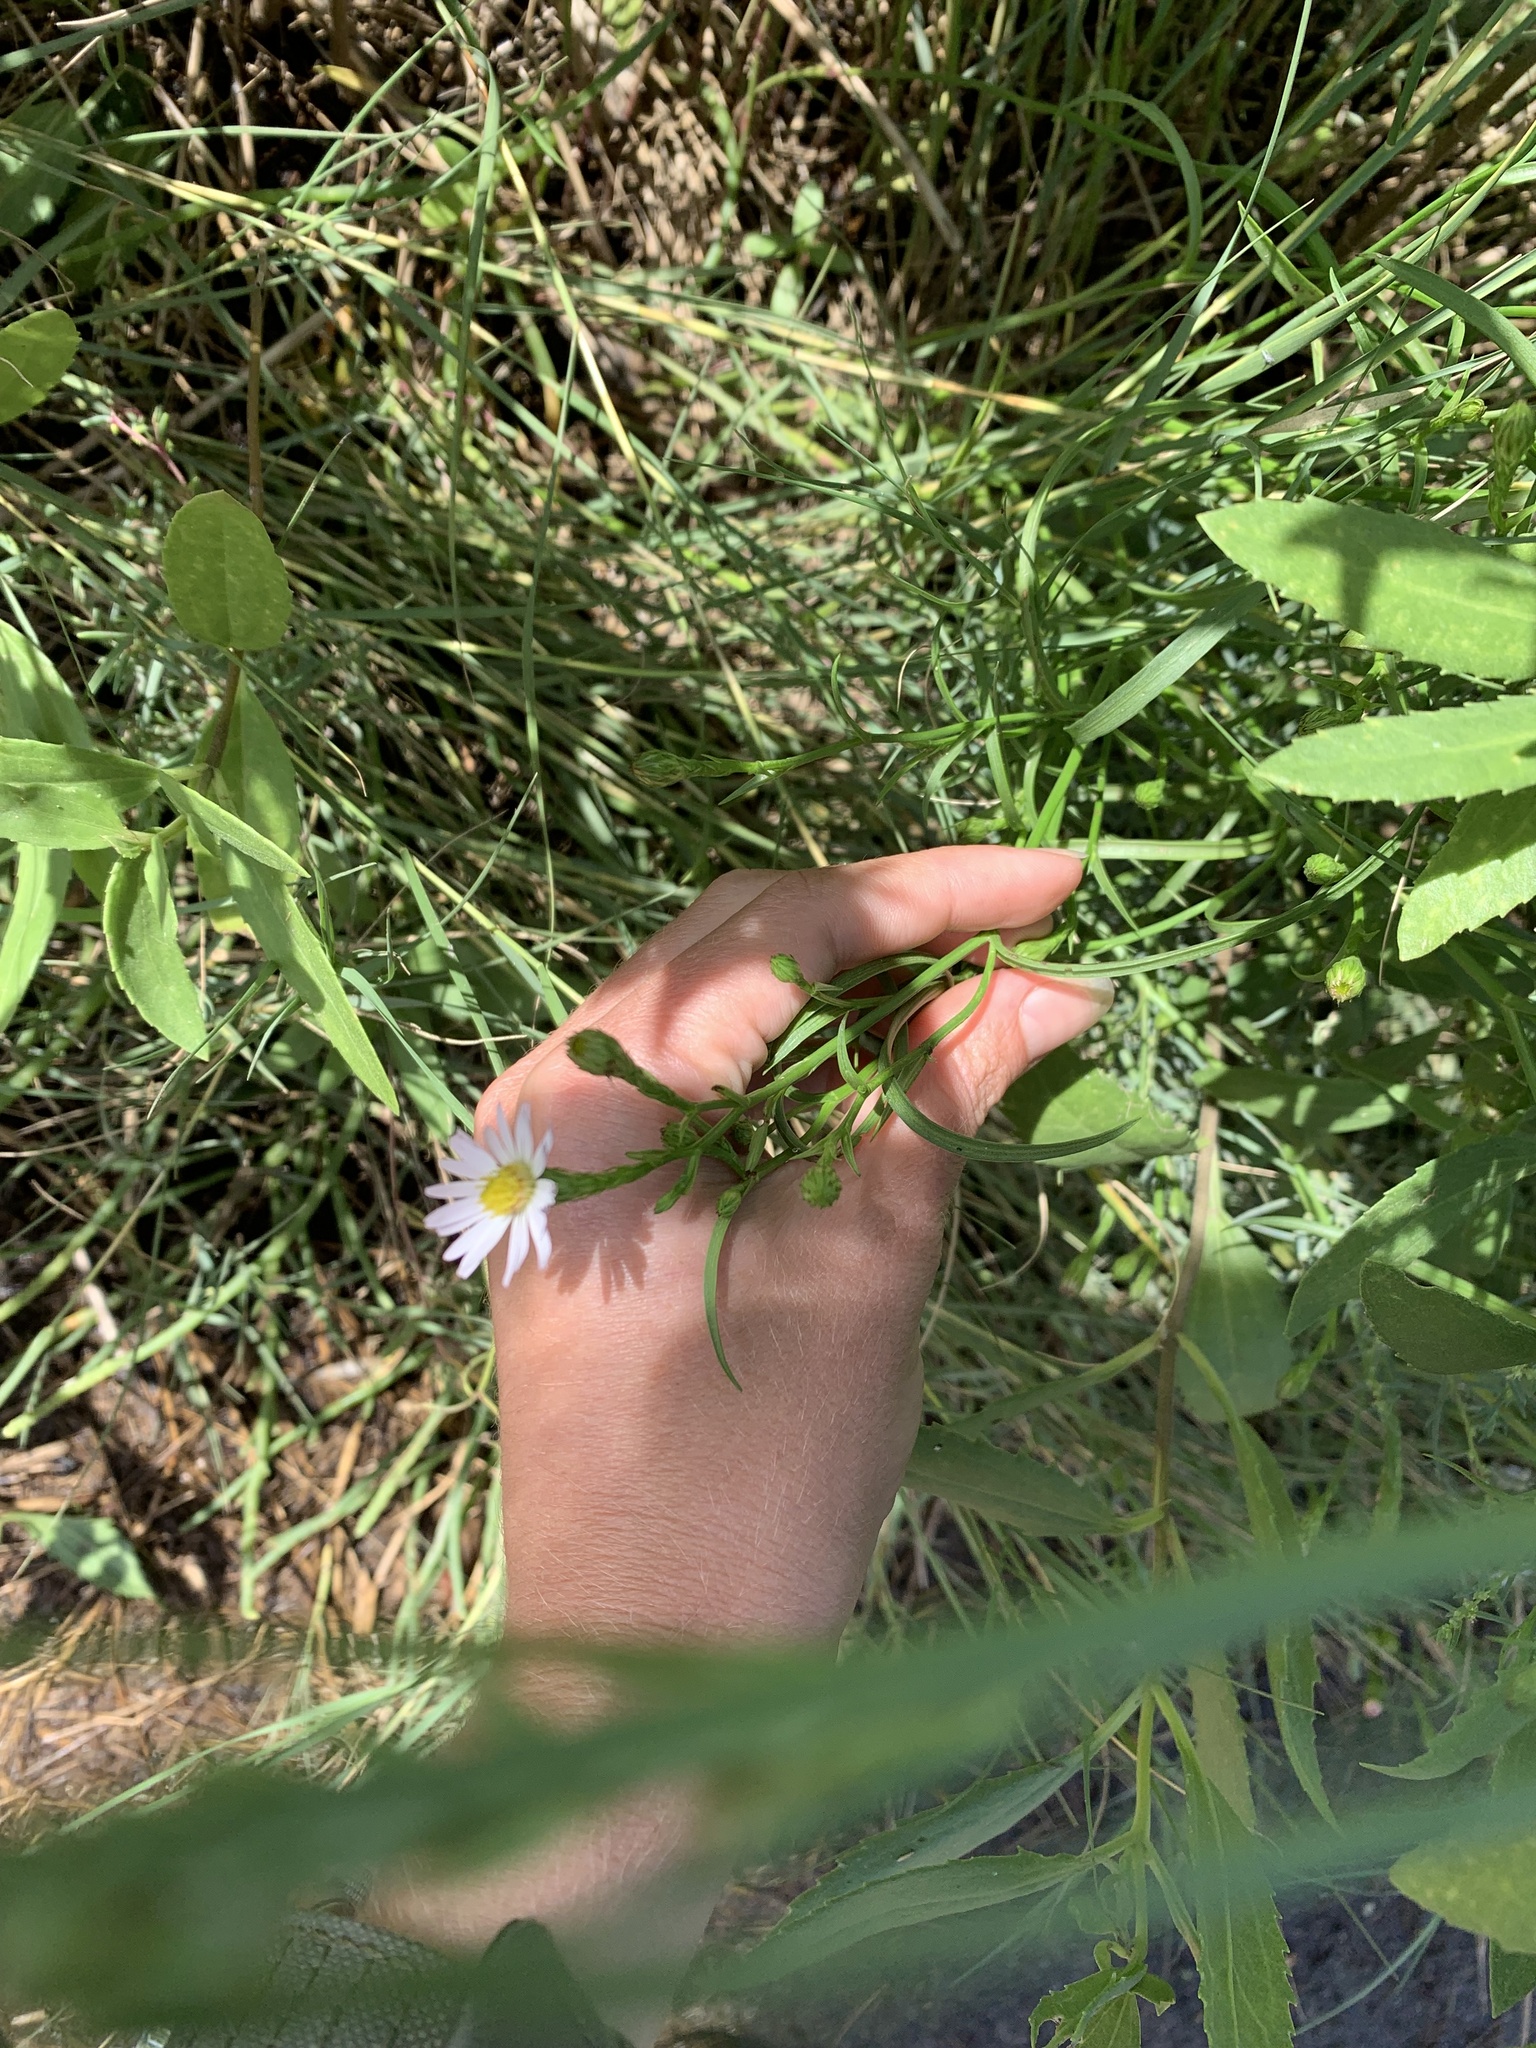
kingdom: Plantae
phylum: Tracheophyta
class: Magnoliopsida
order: Asterales
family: Asteraceae
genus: Symphyotrichum
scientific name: Symphyotrichum tenuifolium
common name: Perennial salt-marsh aster
